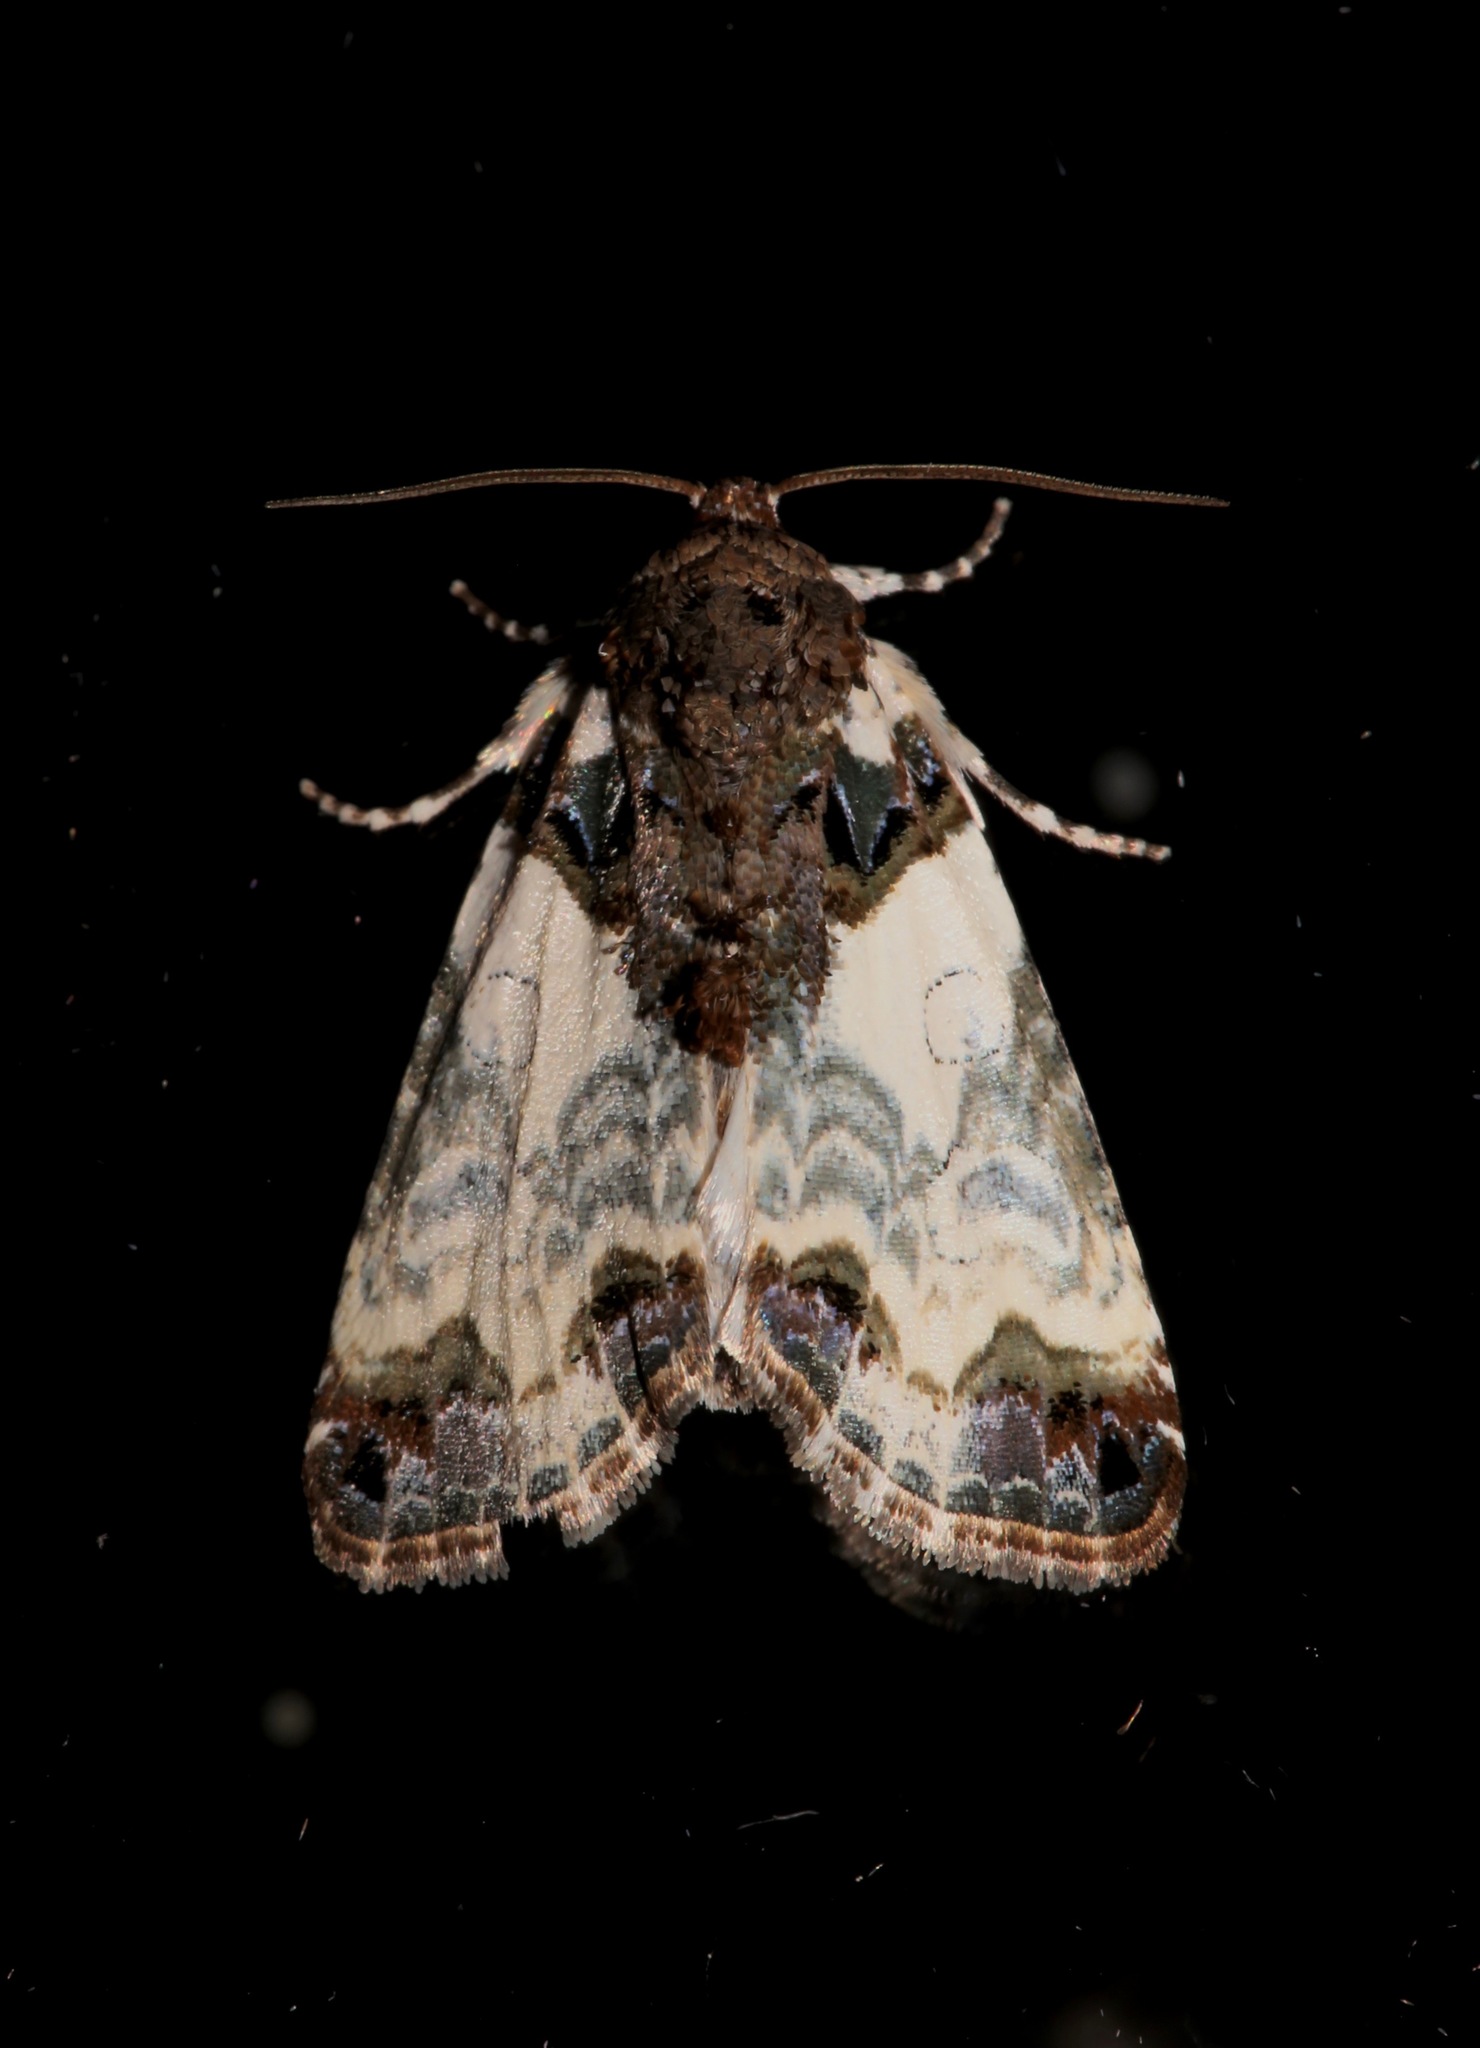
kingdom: Animalia
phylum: Arthropoda
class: Insecta
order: Lepidoptera
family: Noctuidae
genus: Cerma
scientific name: Cerma cerintha
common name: Tufted bird-dropping moth
